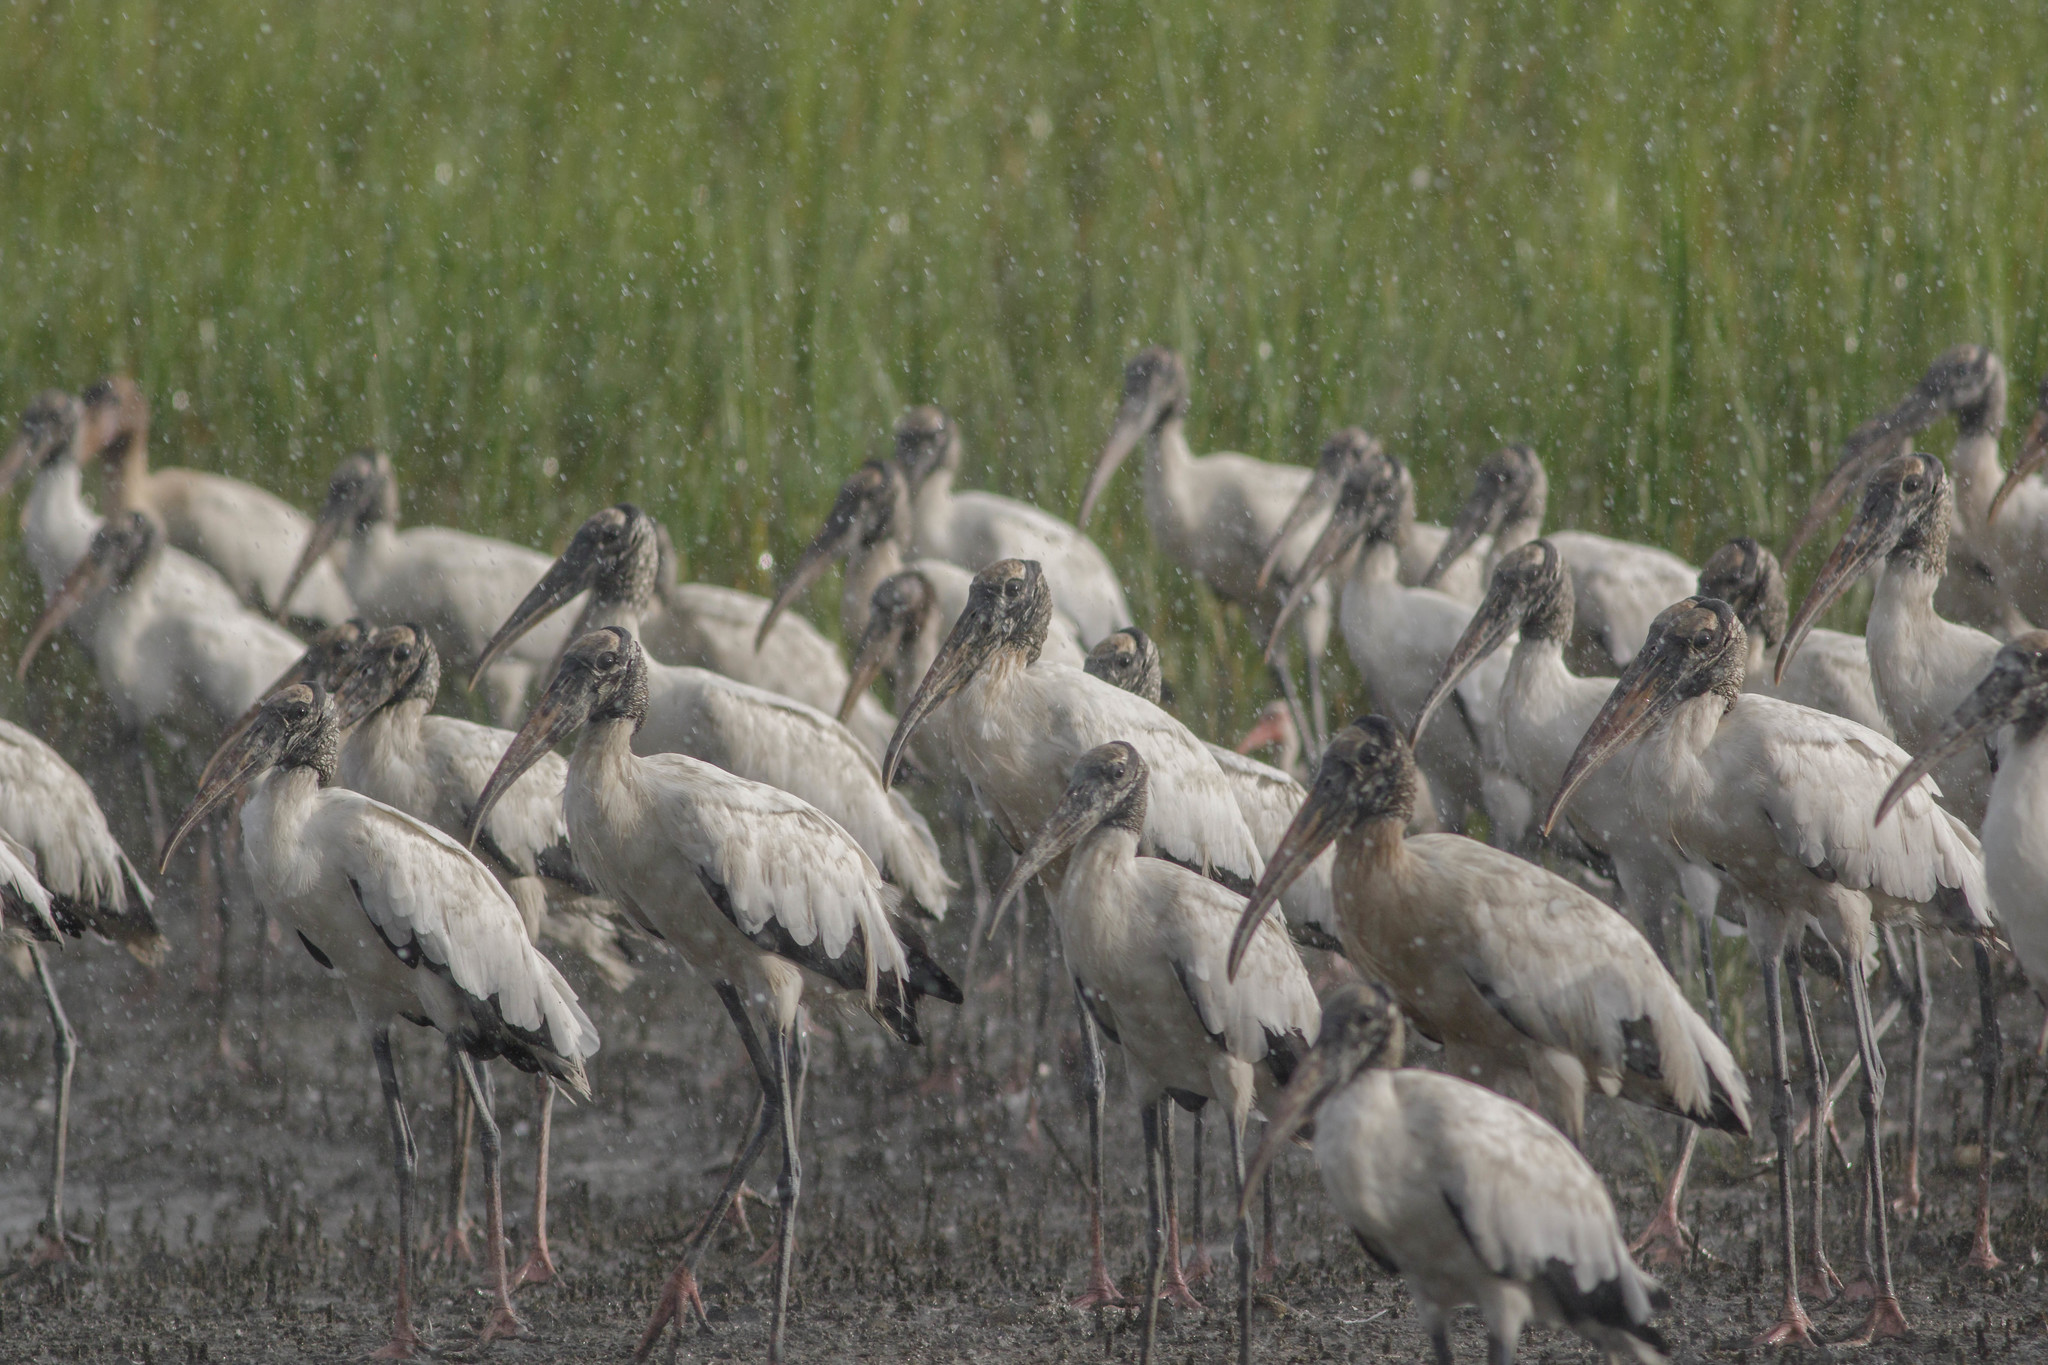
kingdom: Animalia
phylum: Chordata
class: Aves
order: Ciconiiformes
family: Ciconiidae
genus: Mycteria
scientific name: Mycteria americana
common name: Wood stork
